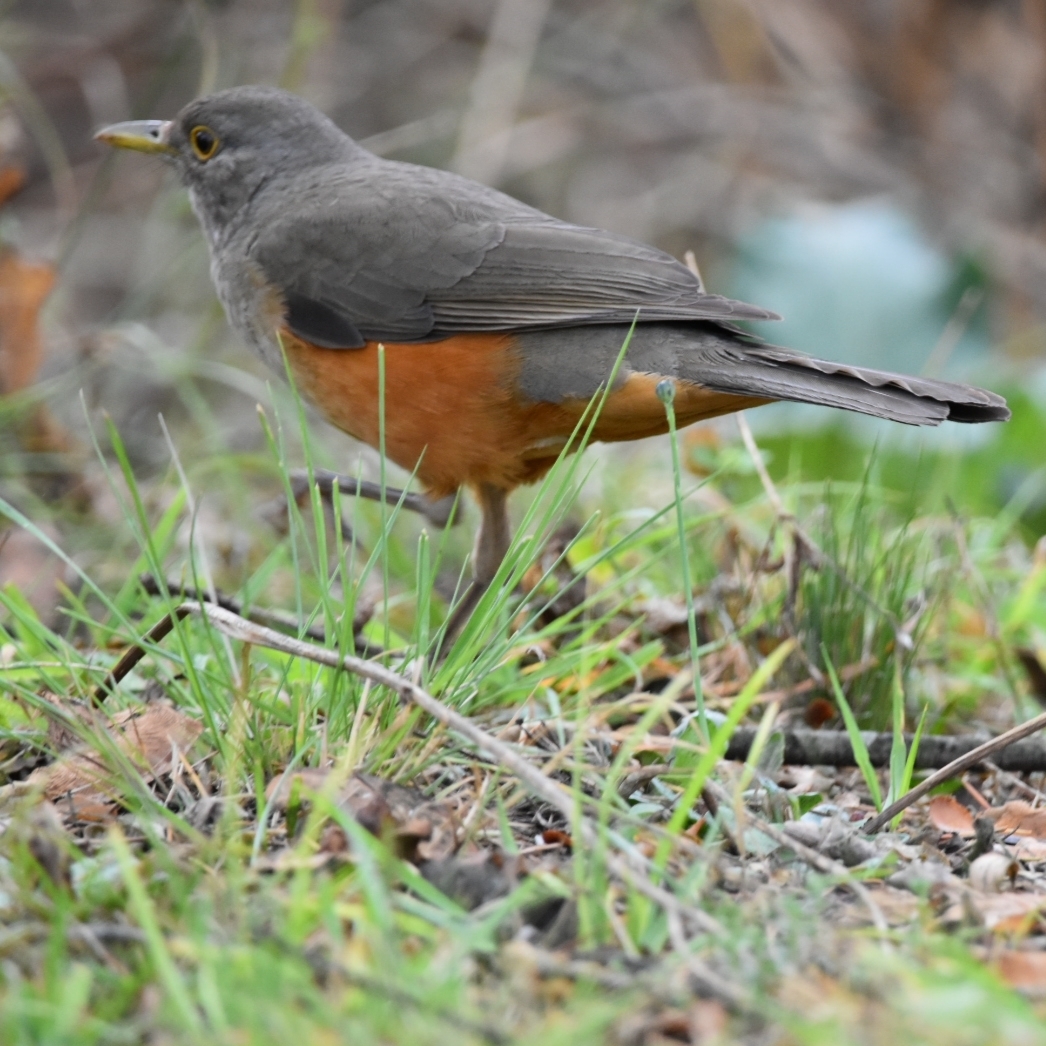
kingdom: Animalia
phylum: Chordata
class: Aves
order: Passeriformes
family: Turdidae
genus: Turdus
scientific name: Turdus rufiventris
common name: Rufous-bellied thrush
